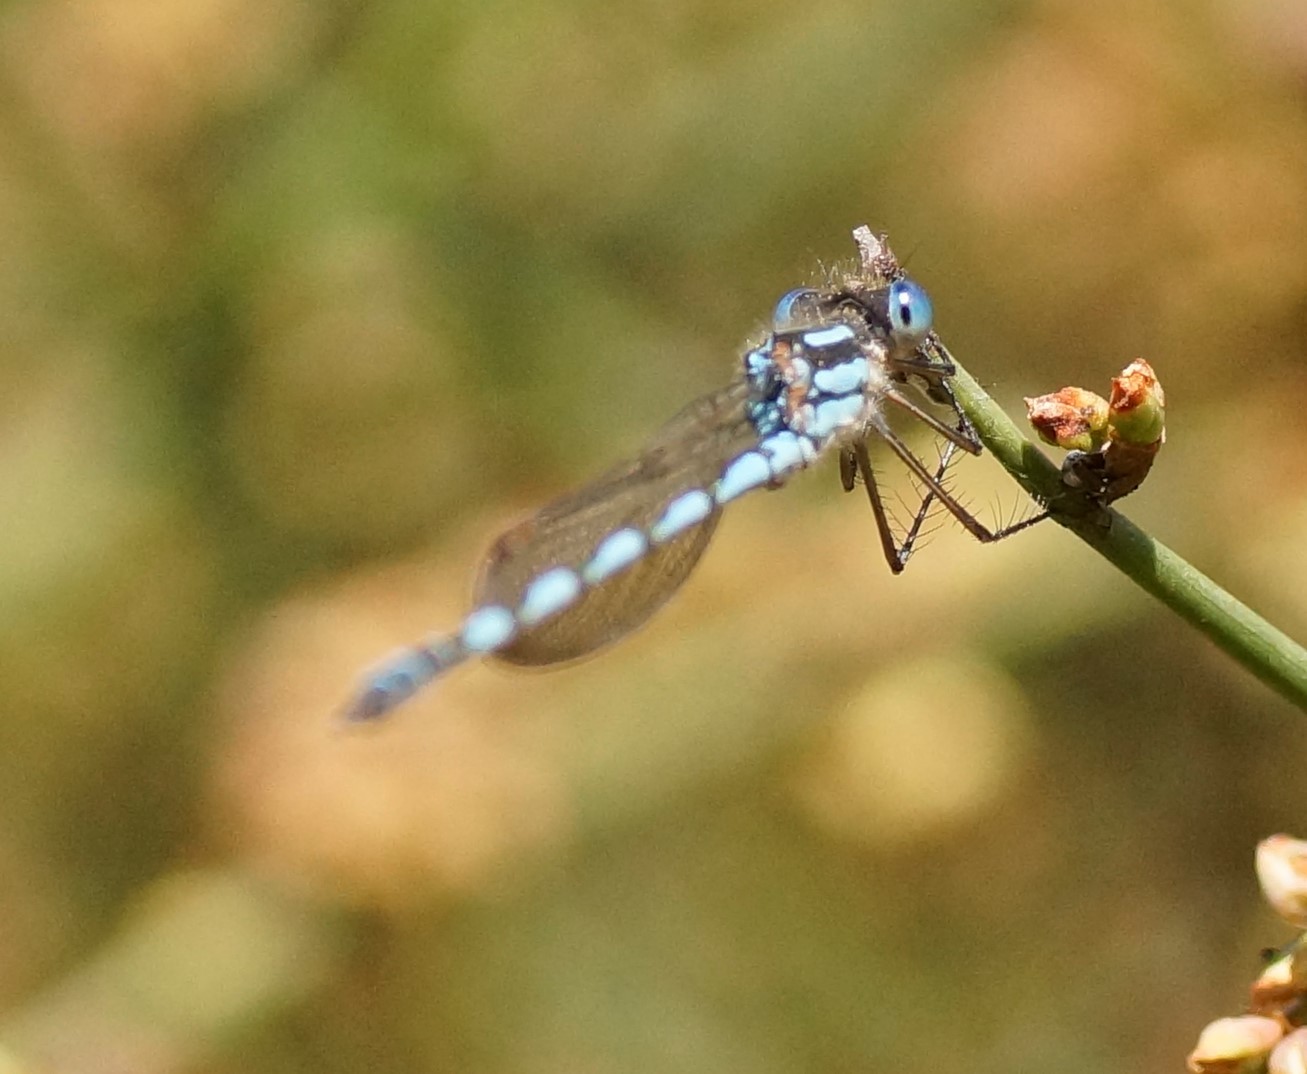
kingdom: Animalia
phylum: Arthropoda
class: Insecta
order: Odonata
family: Lestidae
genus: Austrolestes
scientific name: Austrolestes leda
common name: Wandering ringtail
